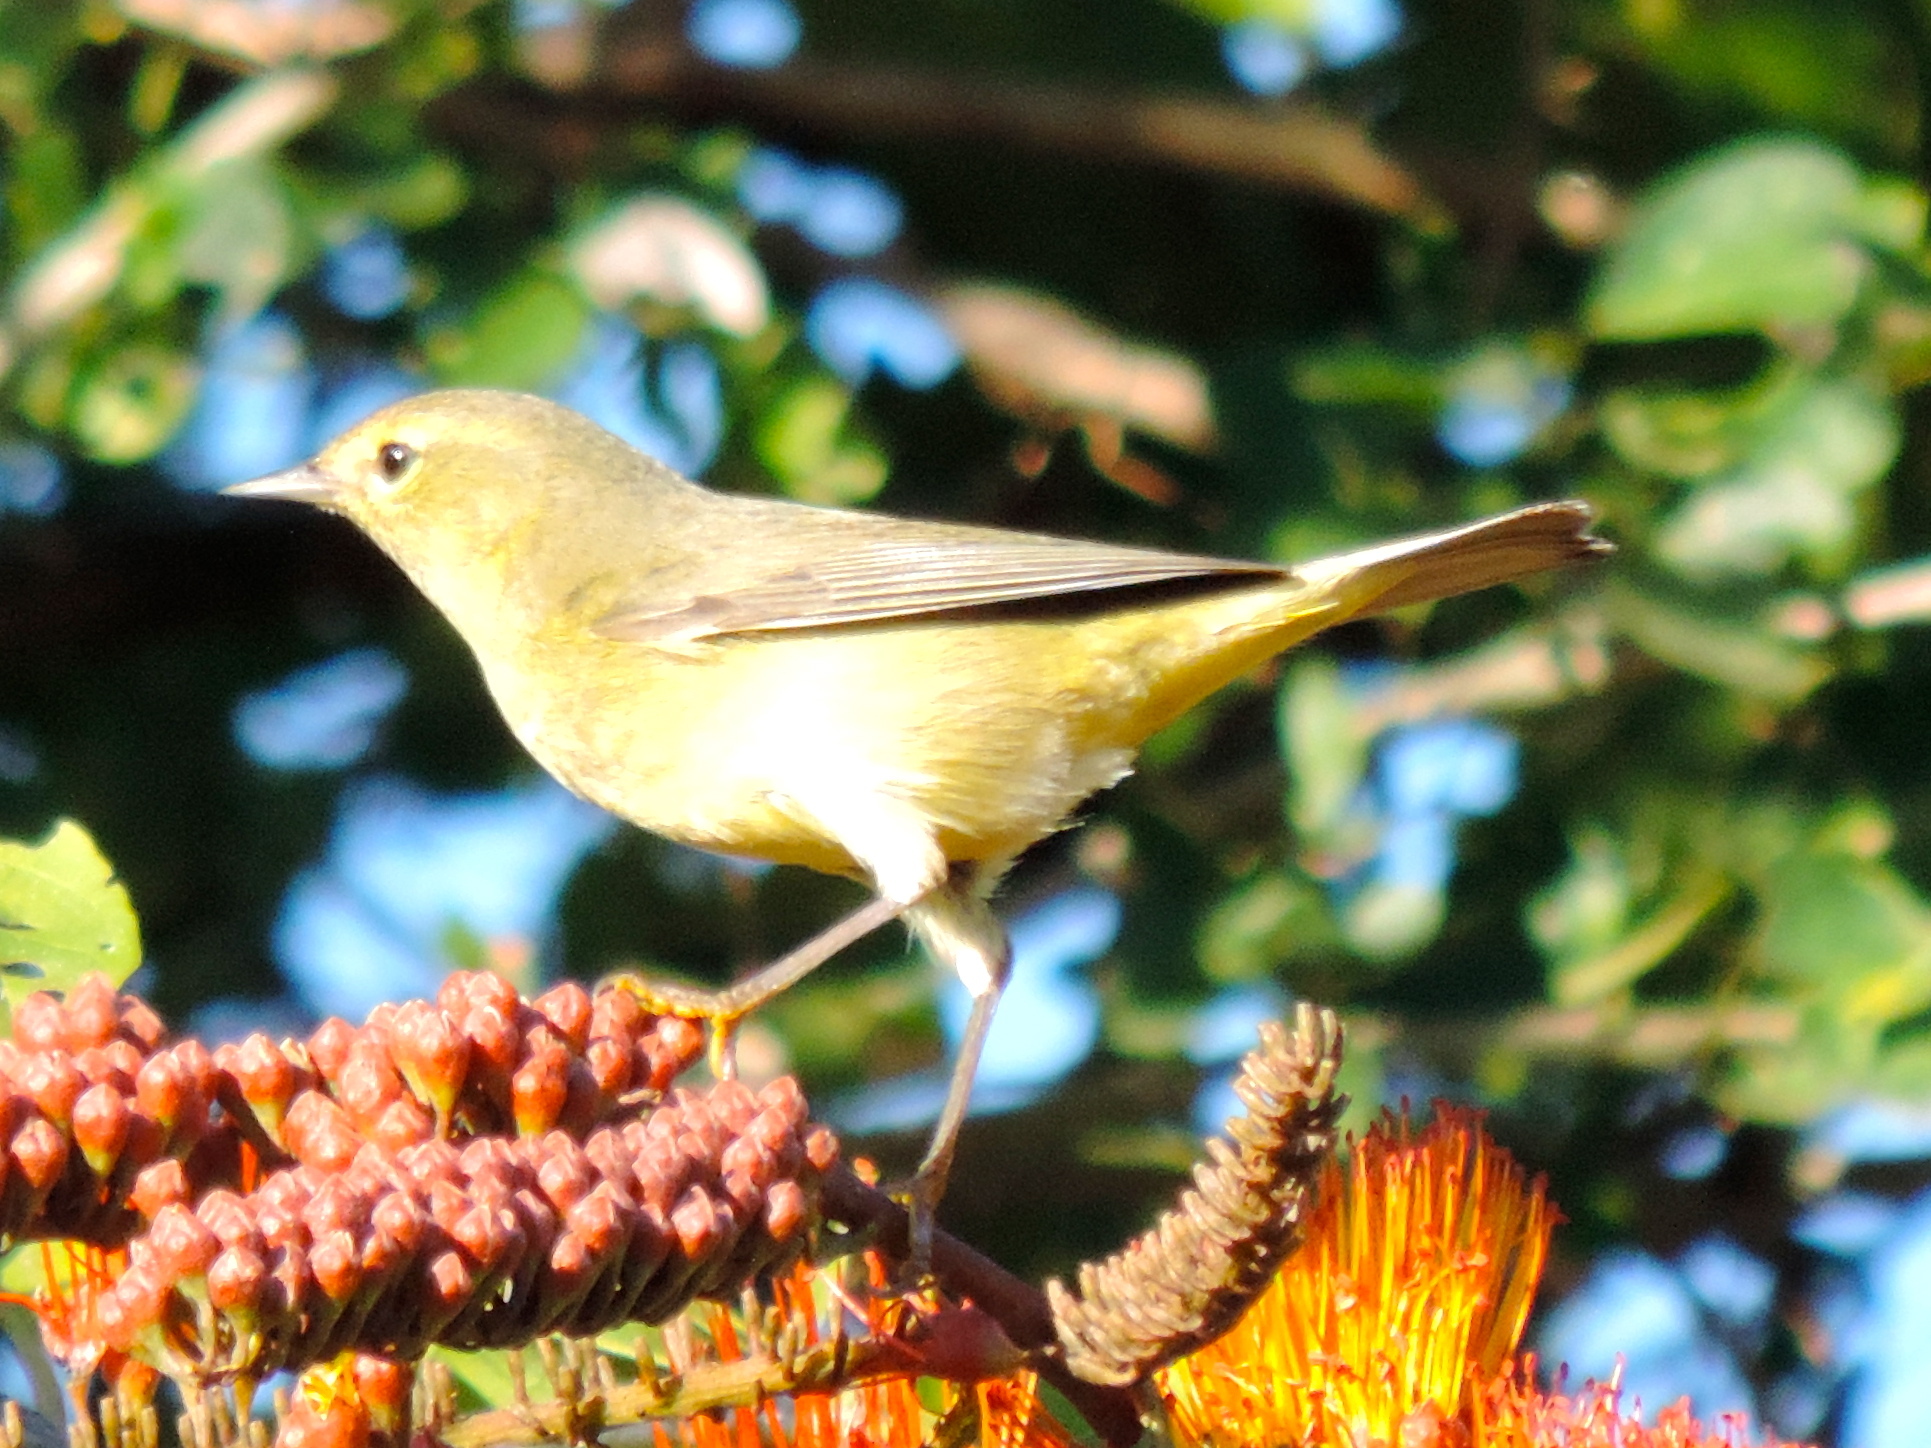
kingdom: Animalia
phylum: Chordata
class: Aves
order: Passeriformes
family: Parulidae
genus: Leiothlypis
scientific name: Leiothlypis celata
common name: Orange-crowned warbler
